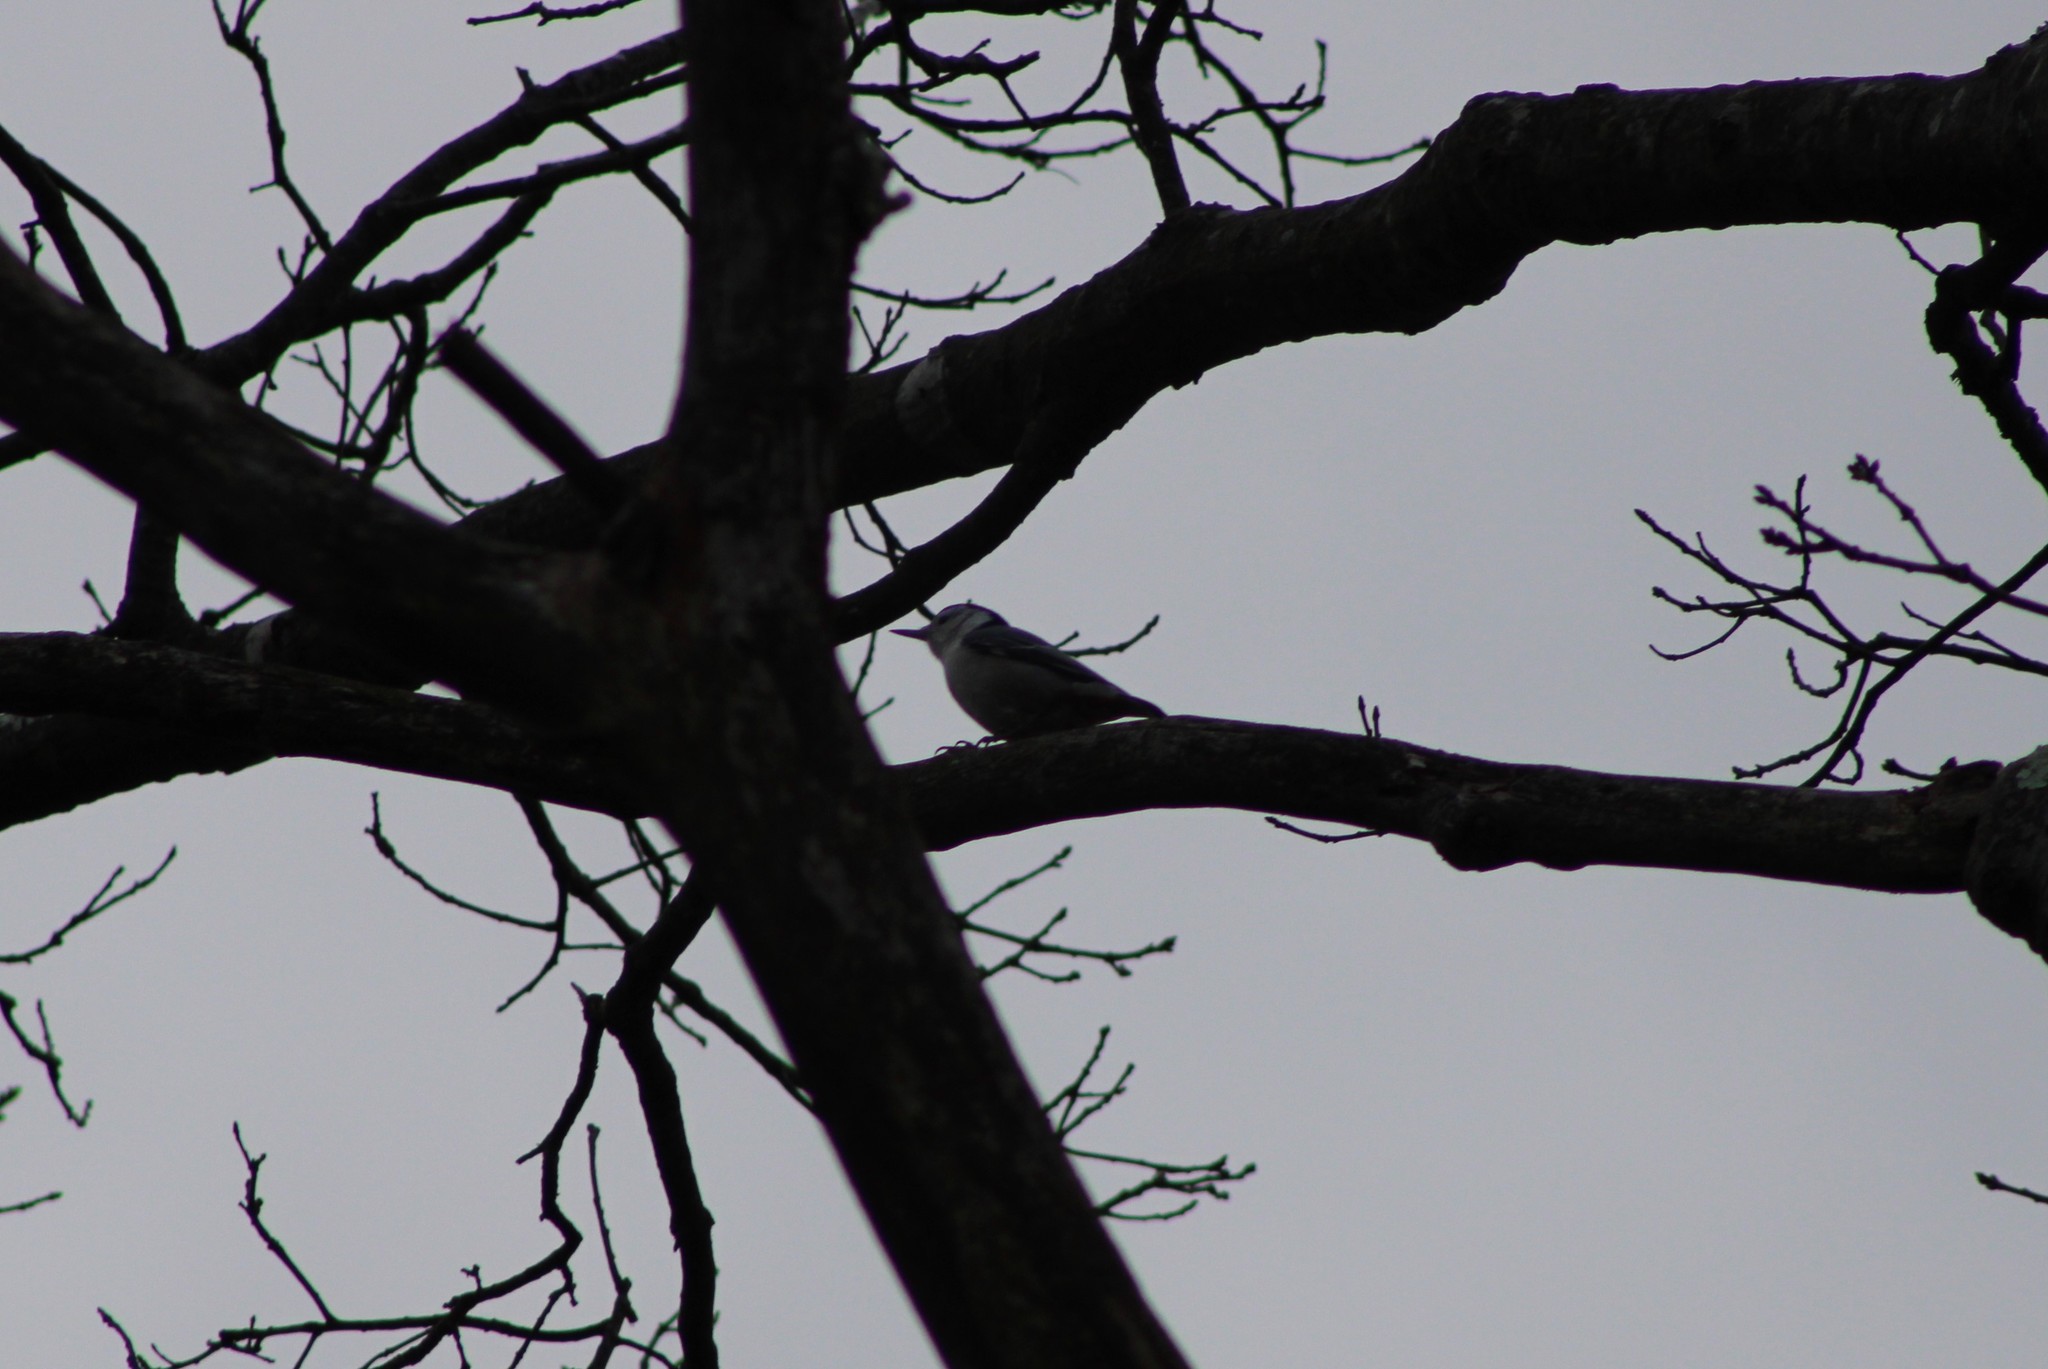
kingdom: Animalia
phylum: Chordata
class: Aves
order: Passeriformes
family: Sittidae
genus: Sitta
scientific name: Sitta carolinensis
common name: White-breasted nuthatch
